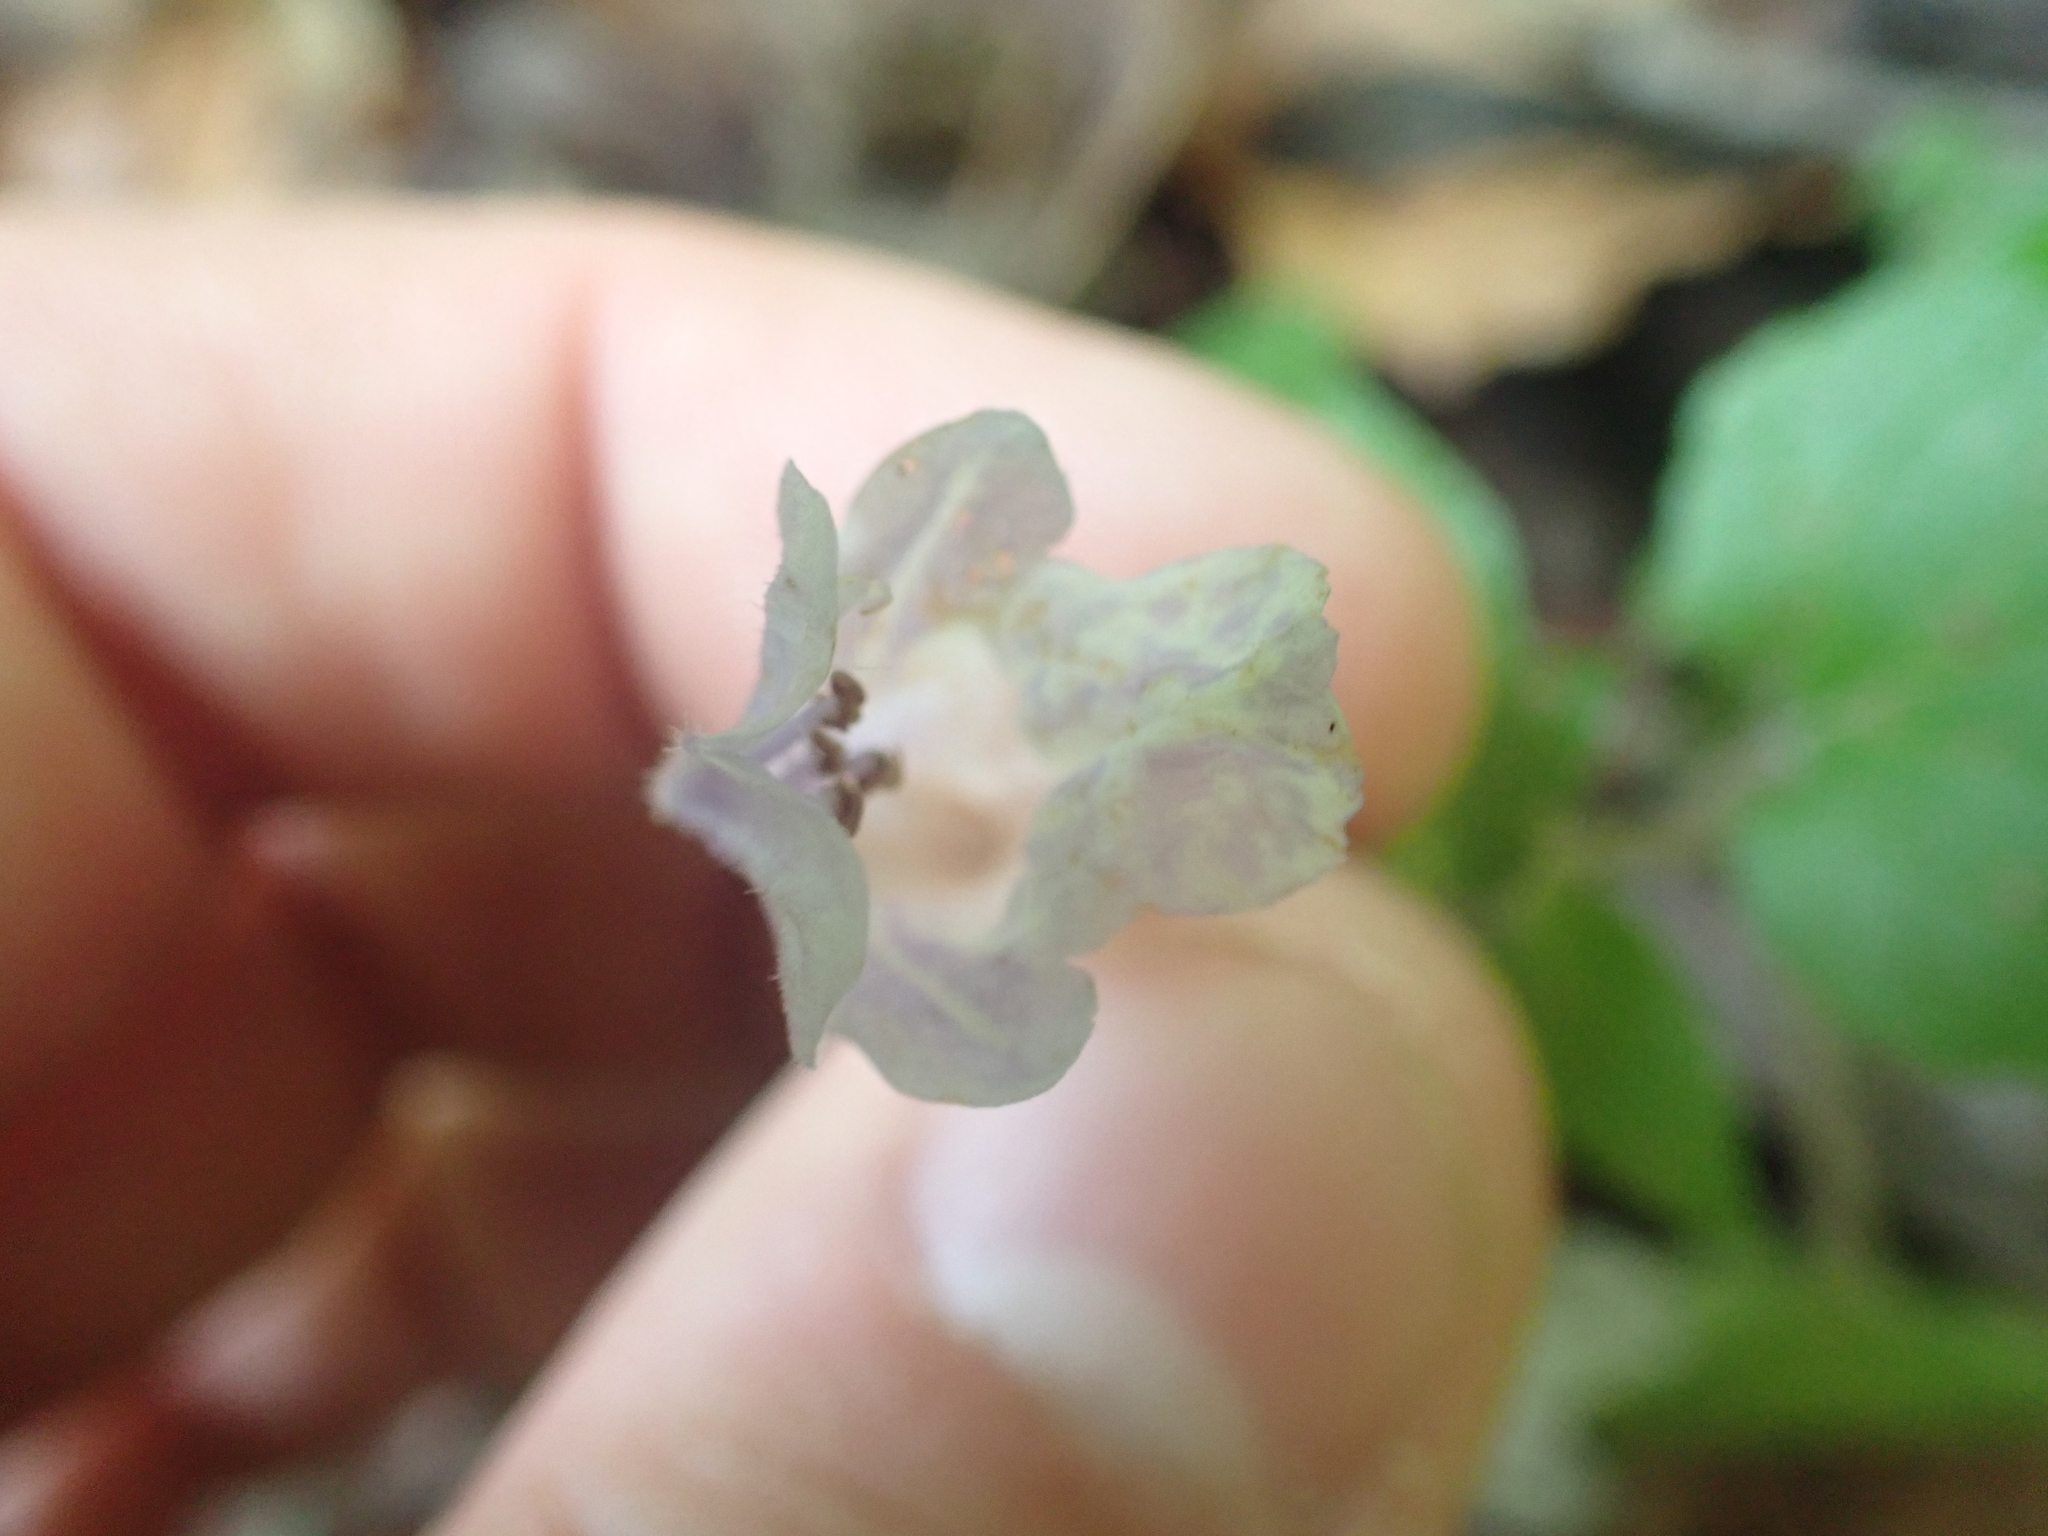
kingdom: Plantae
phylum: Tracheophyta
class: Magnoliopsida
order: Lamiales
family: Lamiaceae
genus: Meehania
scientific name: Meehania cordata
